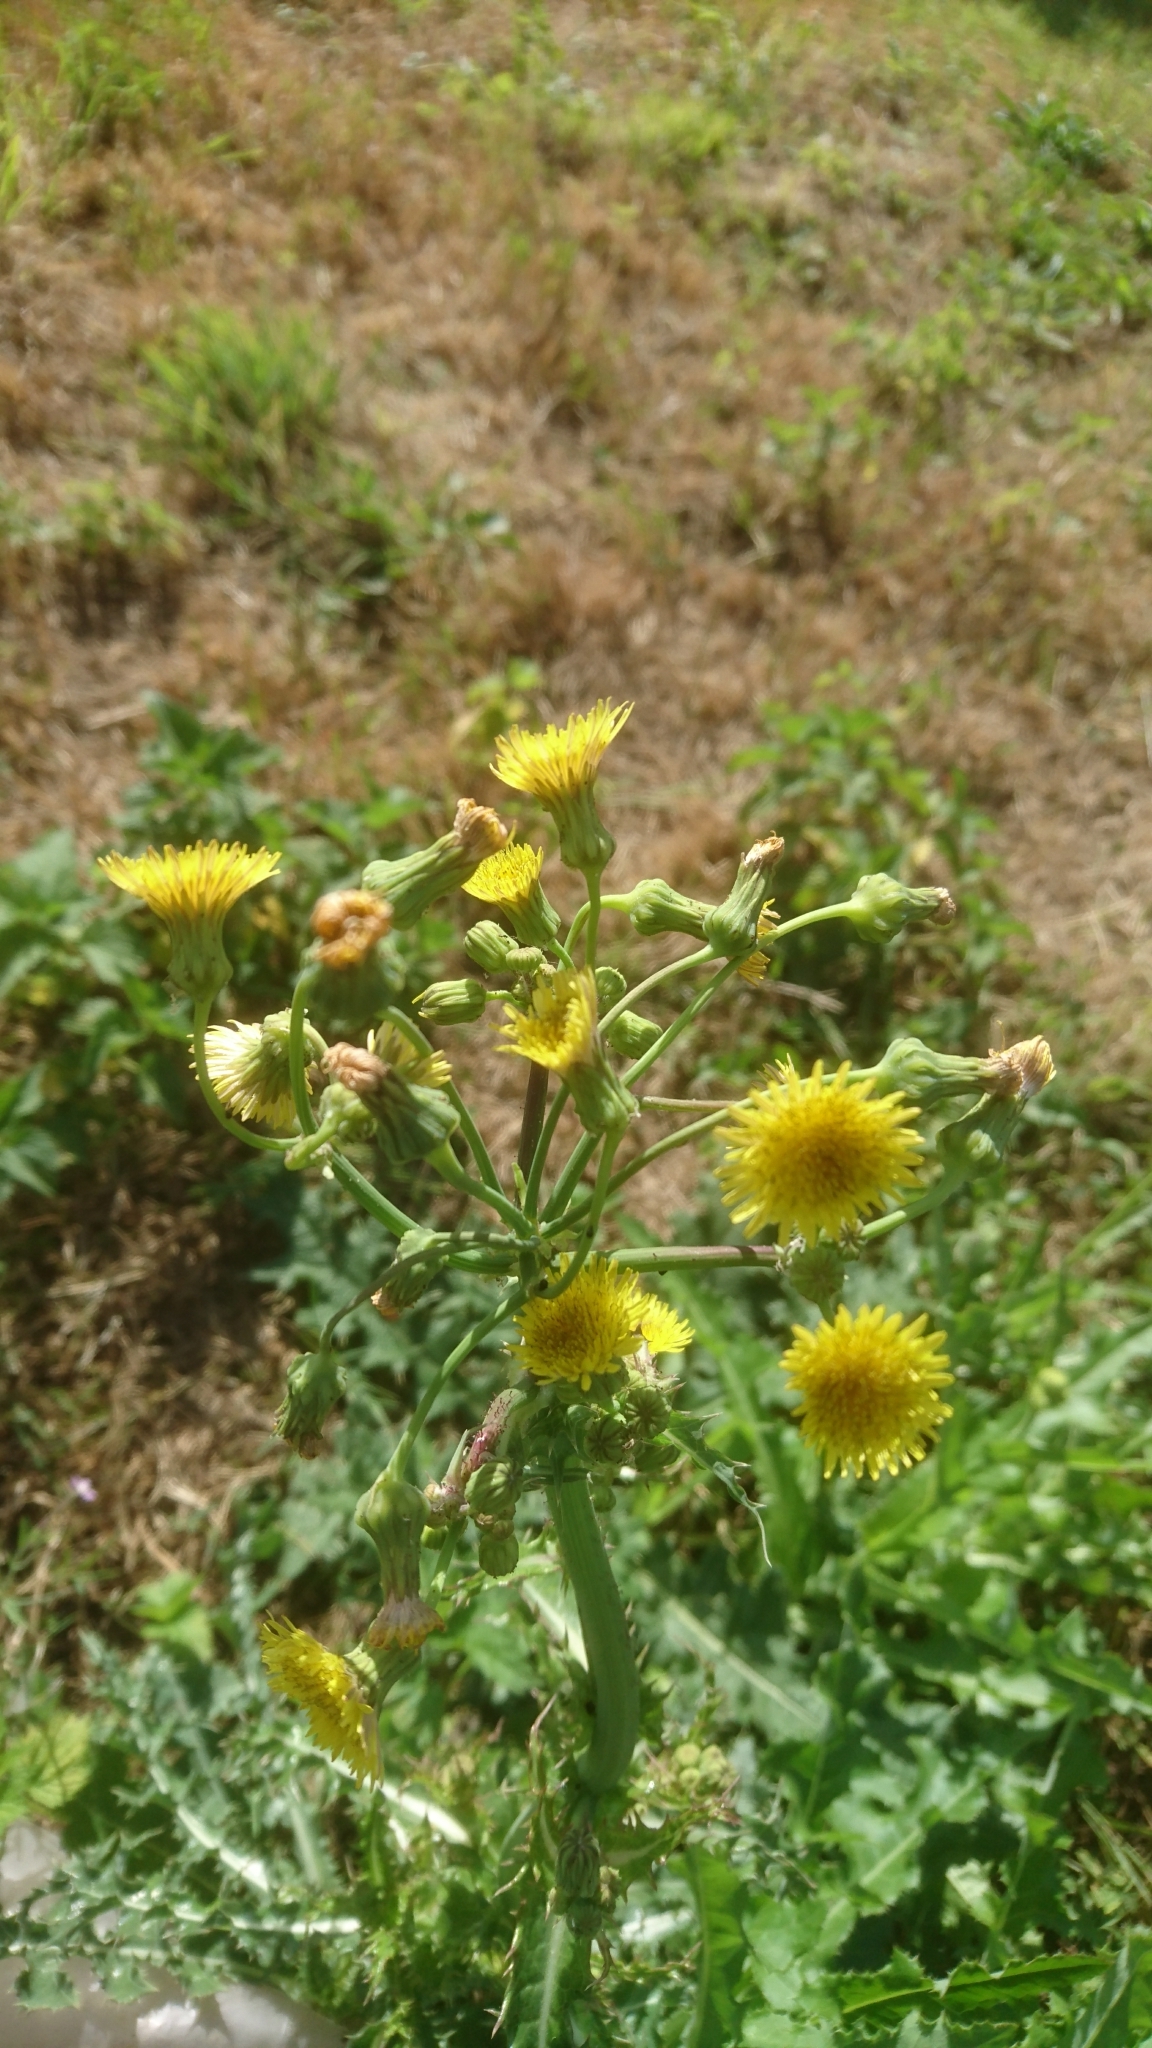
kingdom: Plantae
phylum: Tracheophyta
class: Magnoliopsida
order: Asterales
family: Asteraceae
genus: Sonchus
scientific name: Sonchus asper
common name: Prickly sow-thistle
